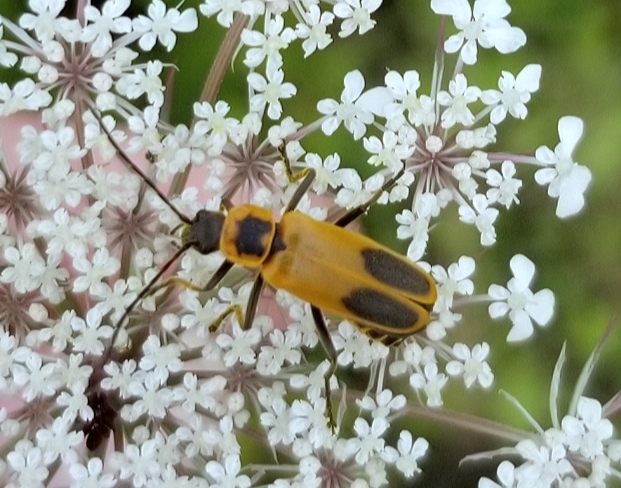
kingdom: Animalia
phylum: Arthropoda
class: Insecta
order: Coleoptera
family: Cantharidae
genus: Chauliognathus
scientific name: Chauliognathus pensylvanicus
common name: Goldenrod soldier beetle
